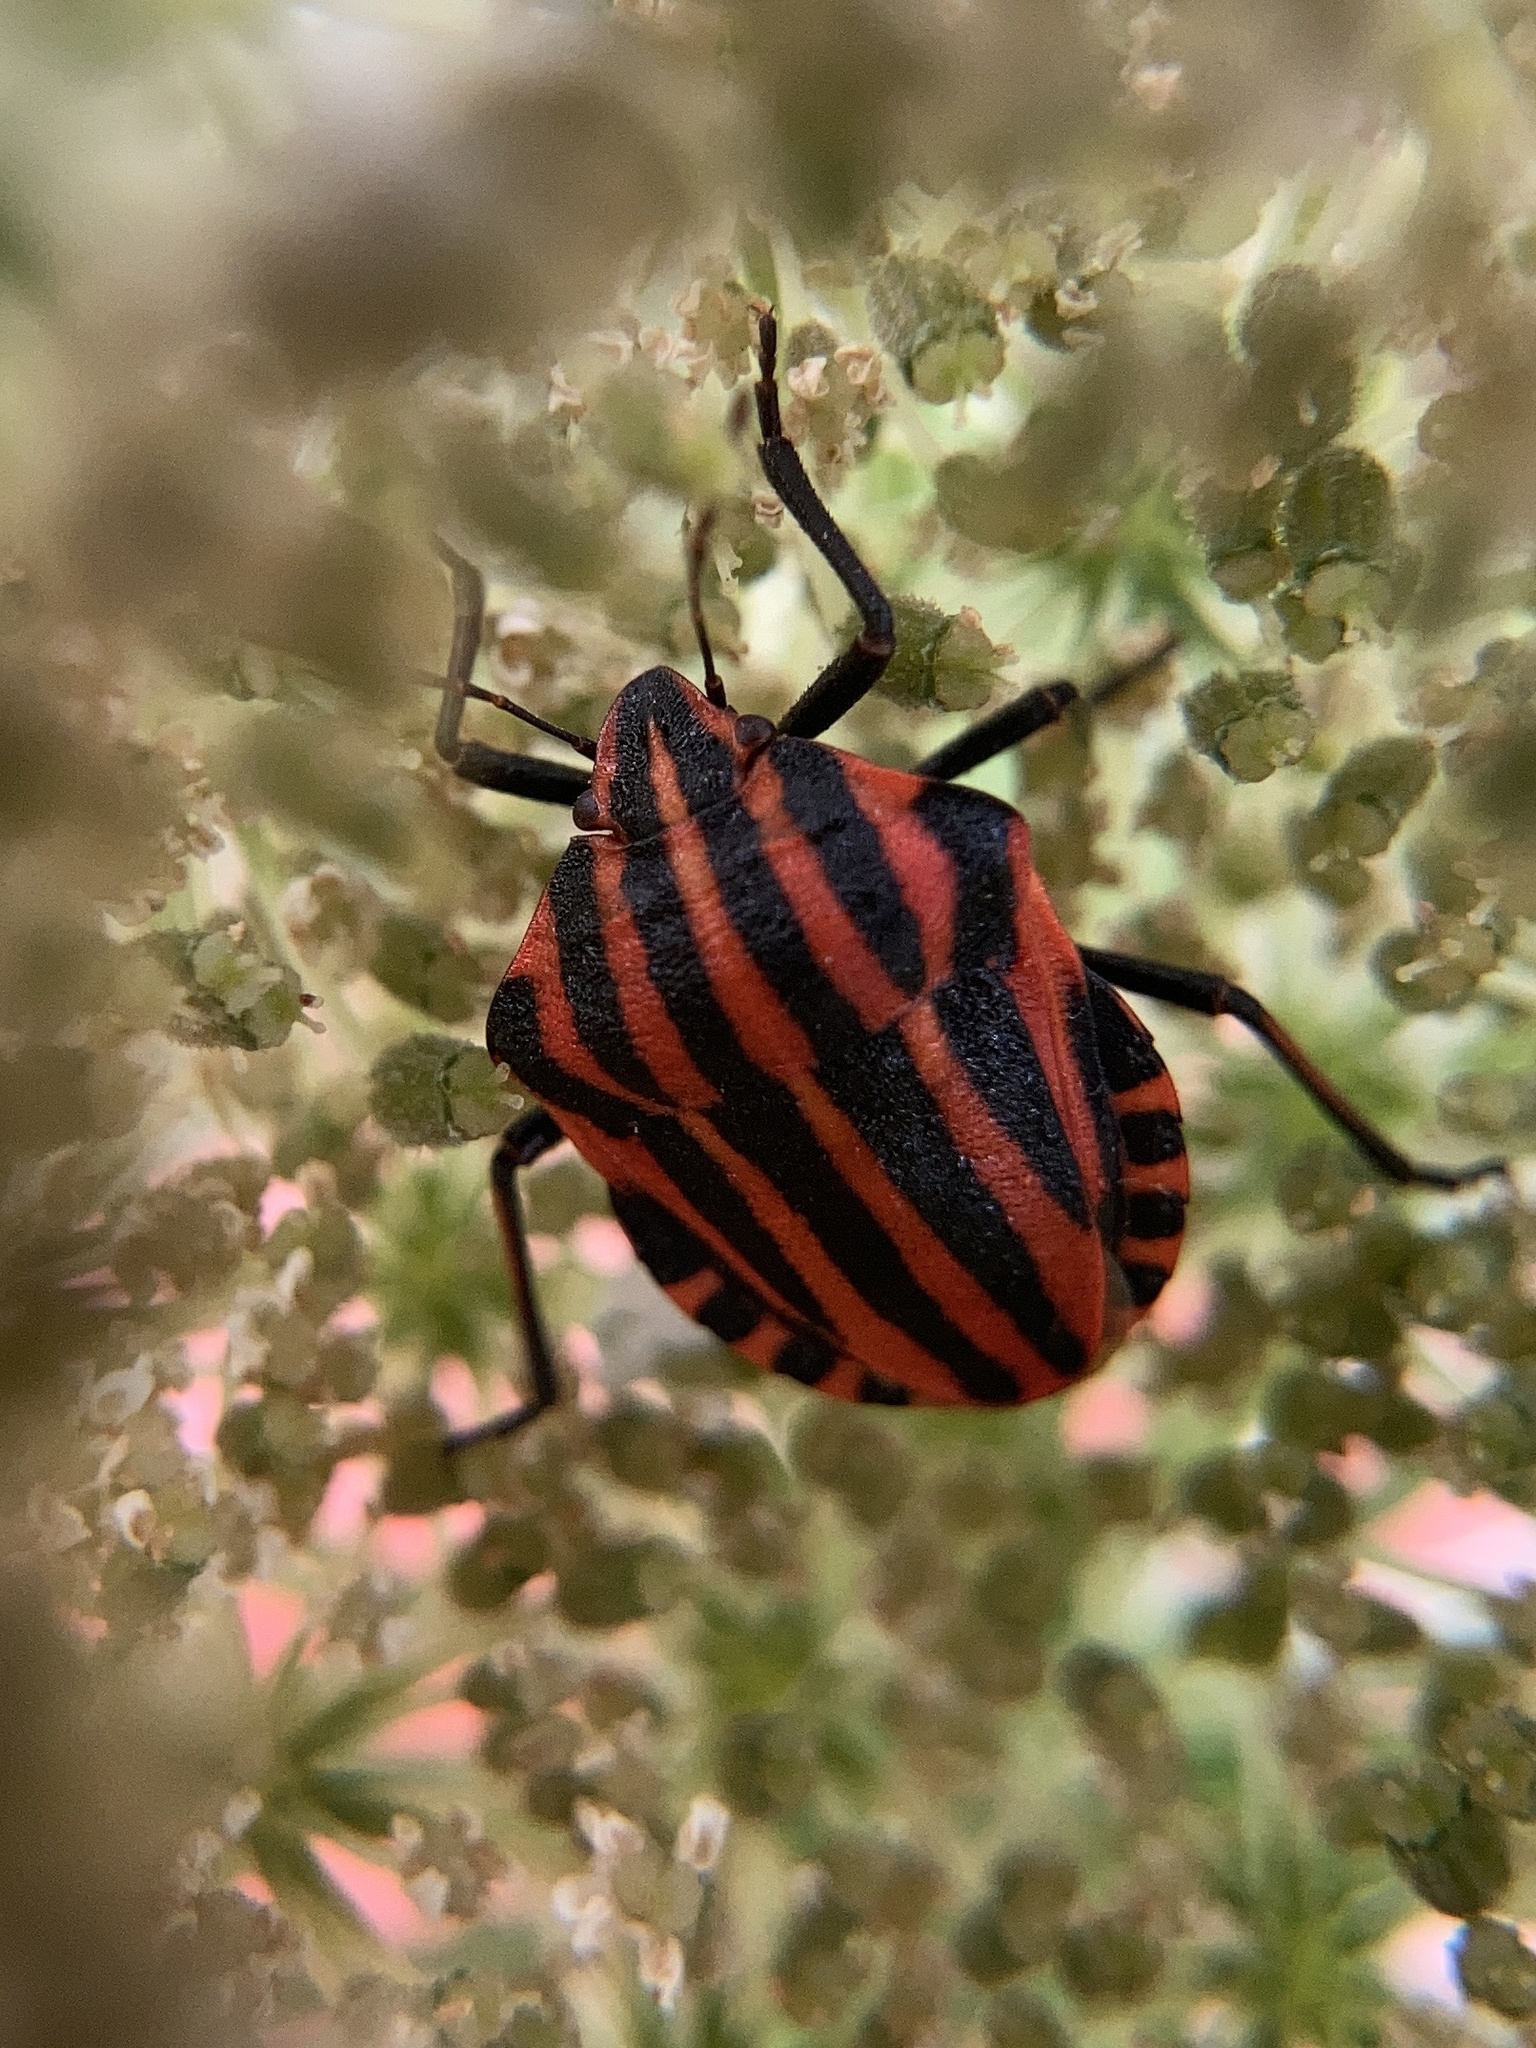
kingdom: Animalia
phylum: Arthropoda
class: Insecta
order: Hemiptera
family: Pentatomidae
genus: Graphosoma
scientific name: Graphosoma italicum
